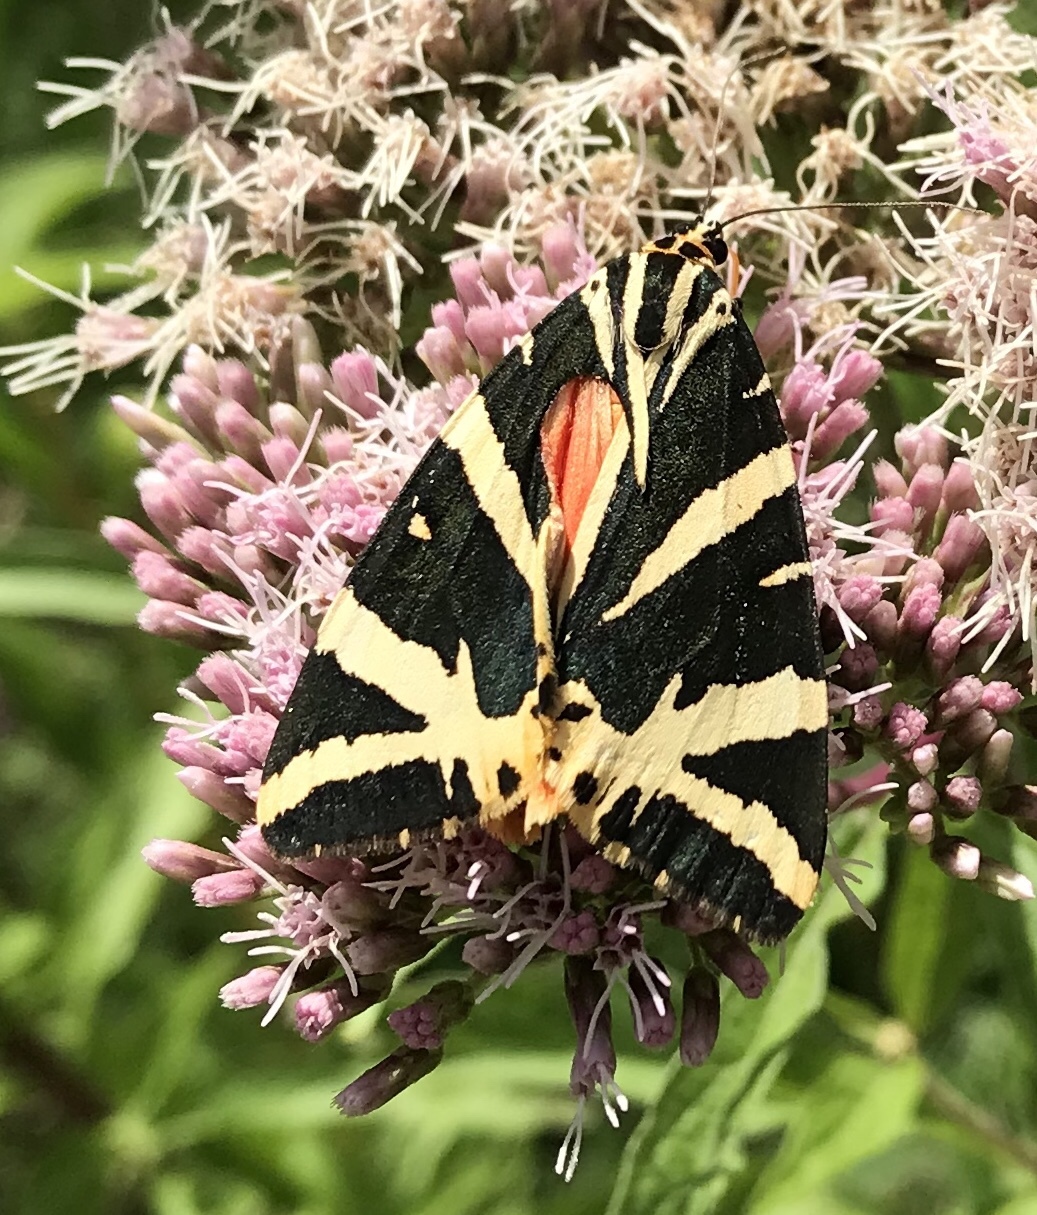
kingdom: Animalia
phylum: Arthropoda
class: Insecta
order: Lepidoptera
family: Erebidae
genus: Euplagia
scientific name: Euplagia quadripunctaria
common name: Jersey tiger
